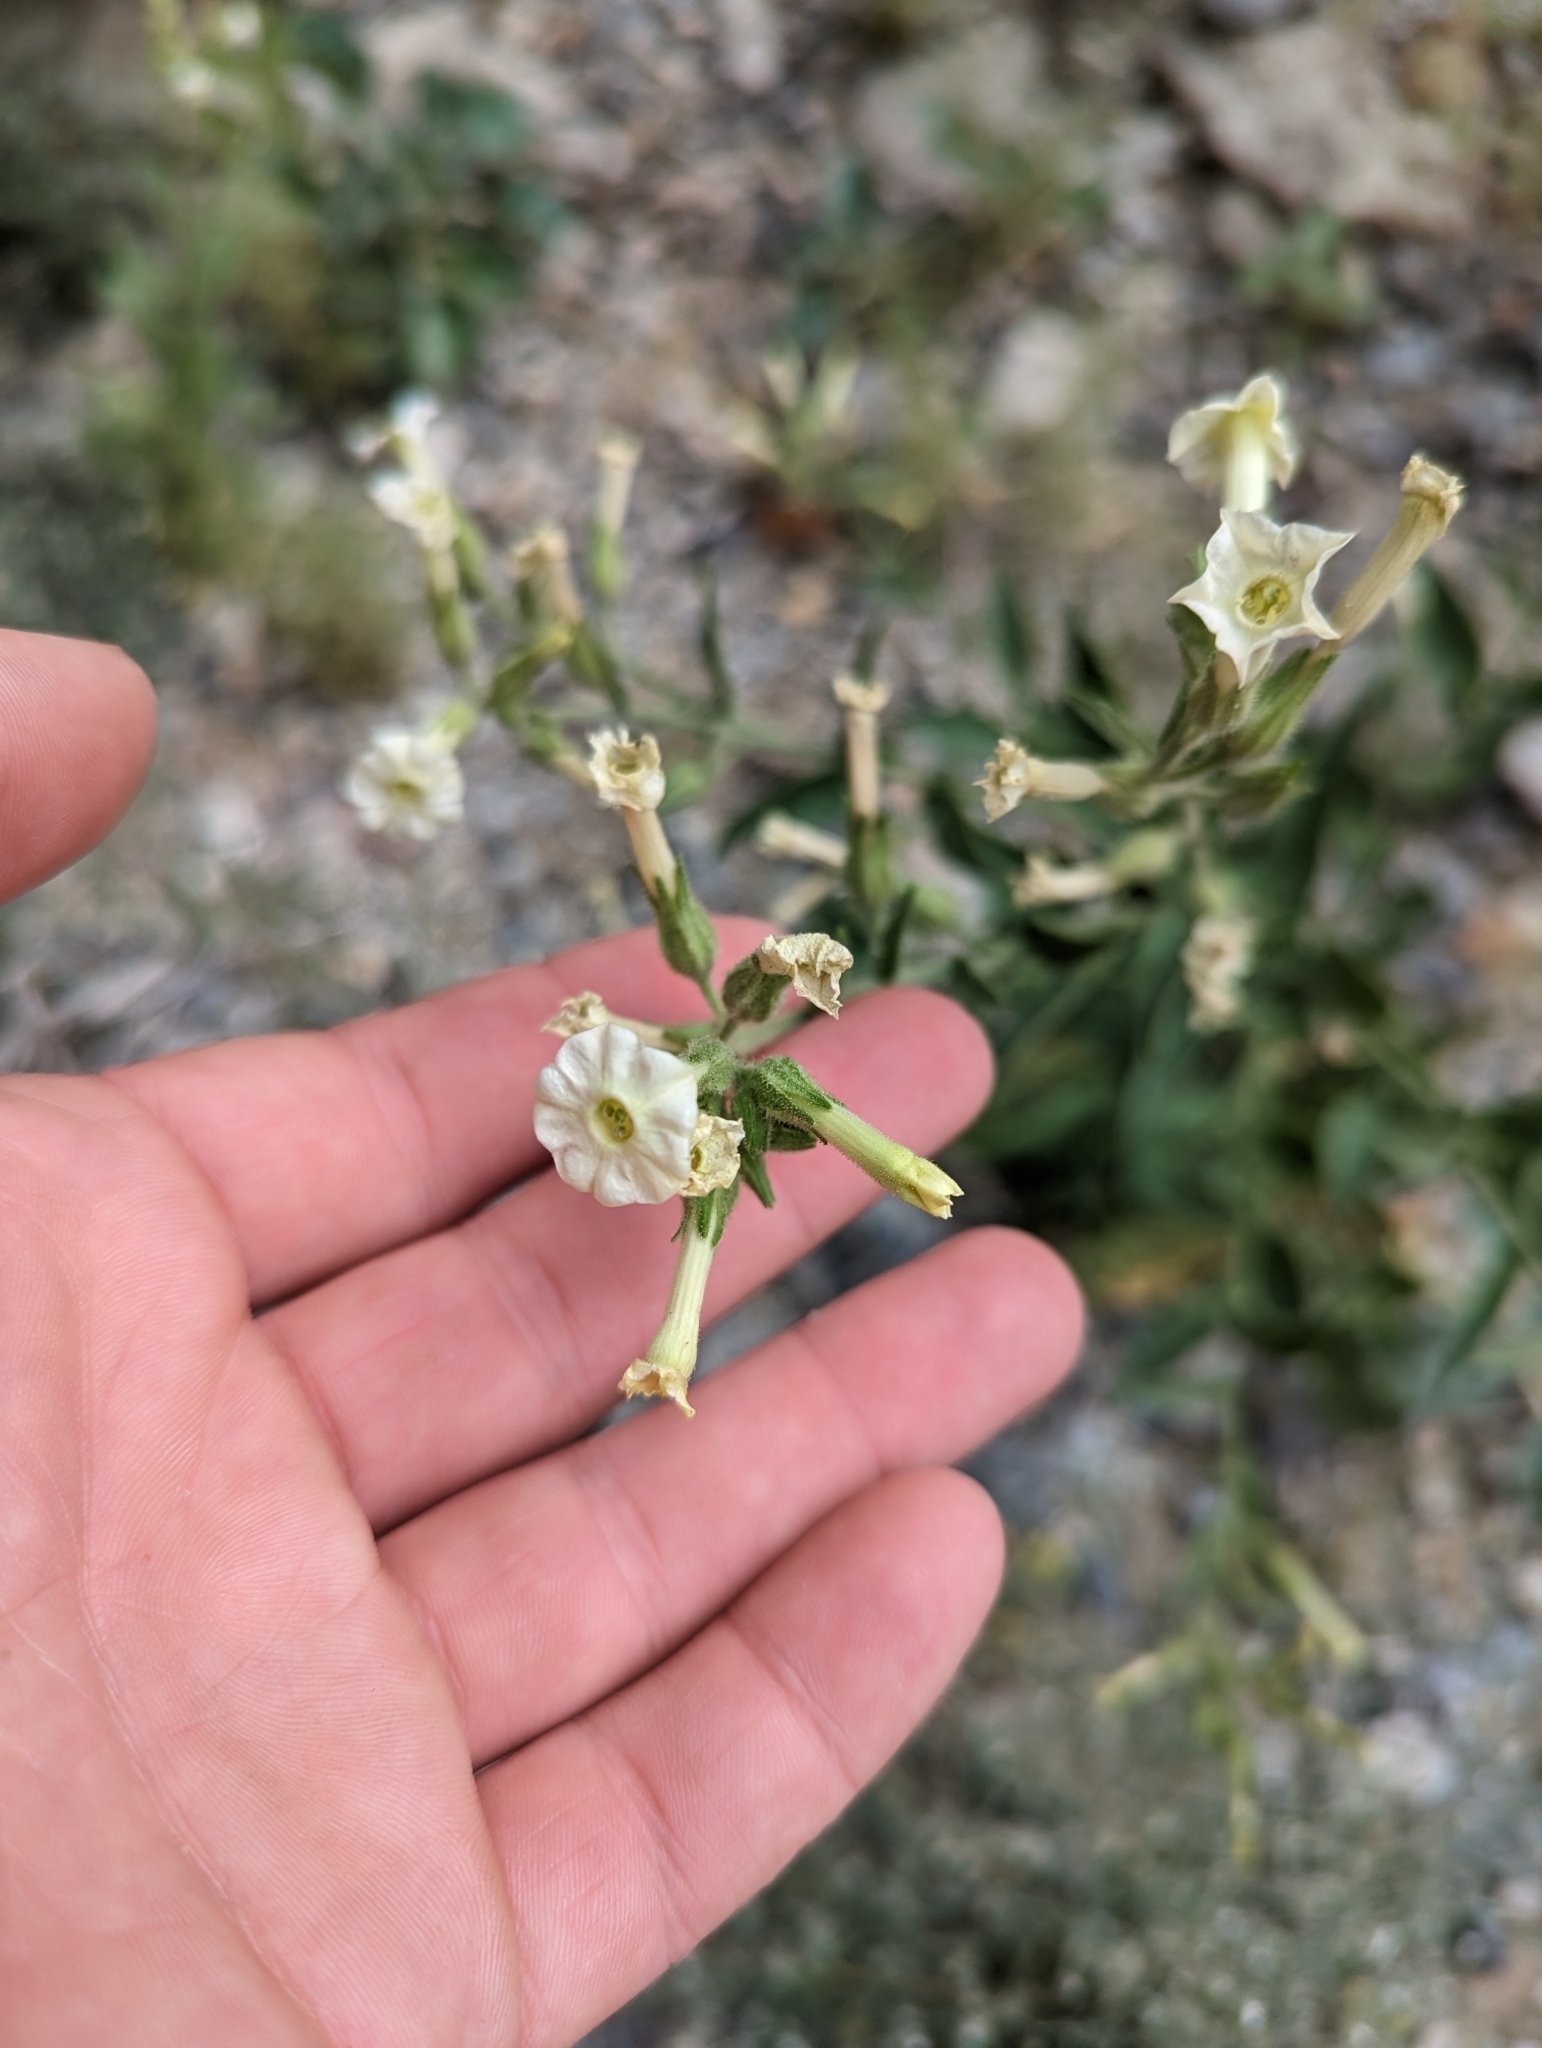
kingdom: Plantae
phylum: Tracheophyta
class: Magnoliopsida
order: Solanales
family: Solanaceae
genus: Nicotiana
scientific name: Nicotiana obtusifolia
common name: Desert tobacco
